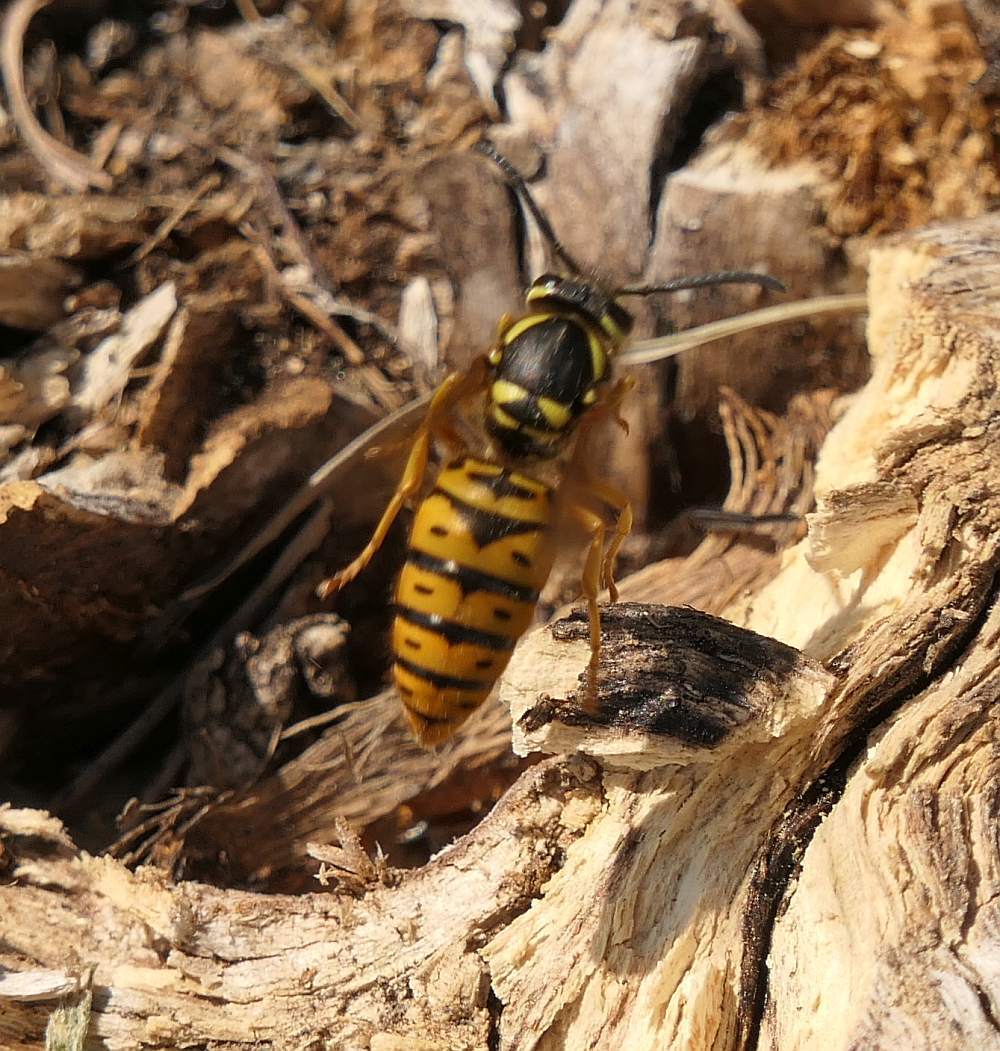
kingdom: Animalia
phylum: Arthropoda
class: Insecta
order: Hymenoptera
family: Vespidae
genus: Vespula
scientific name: Vespula maculifrons
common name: Eastern yellowjacket
